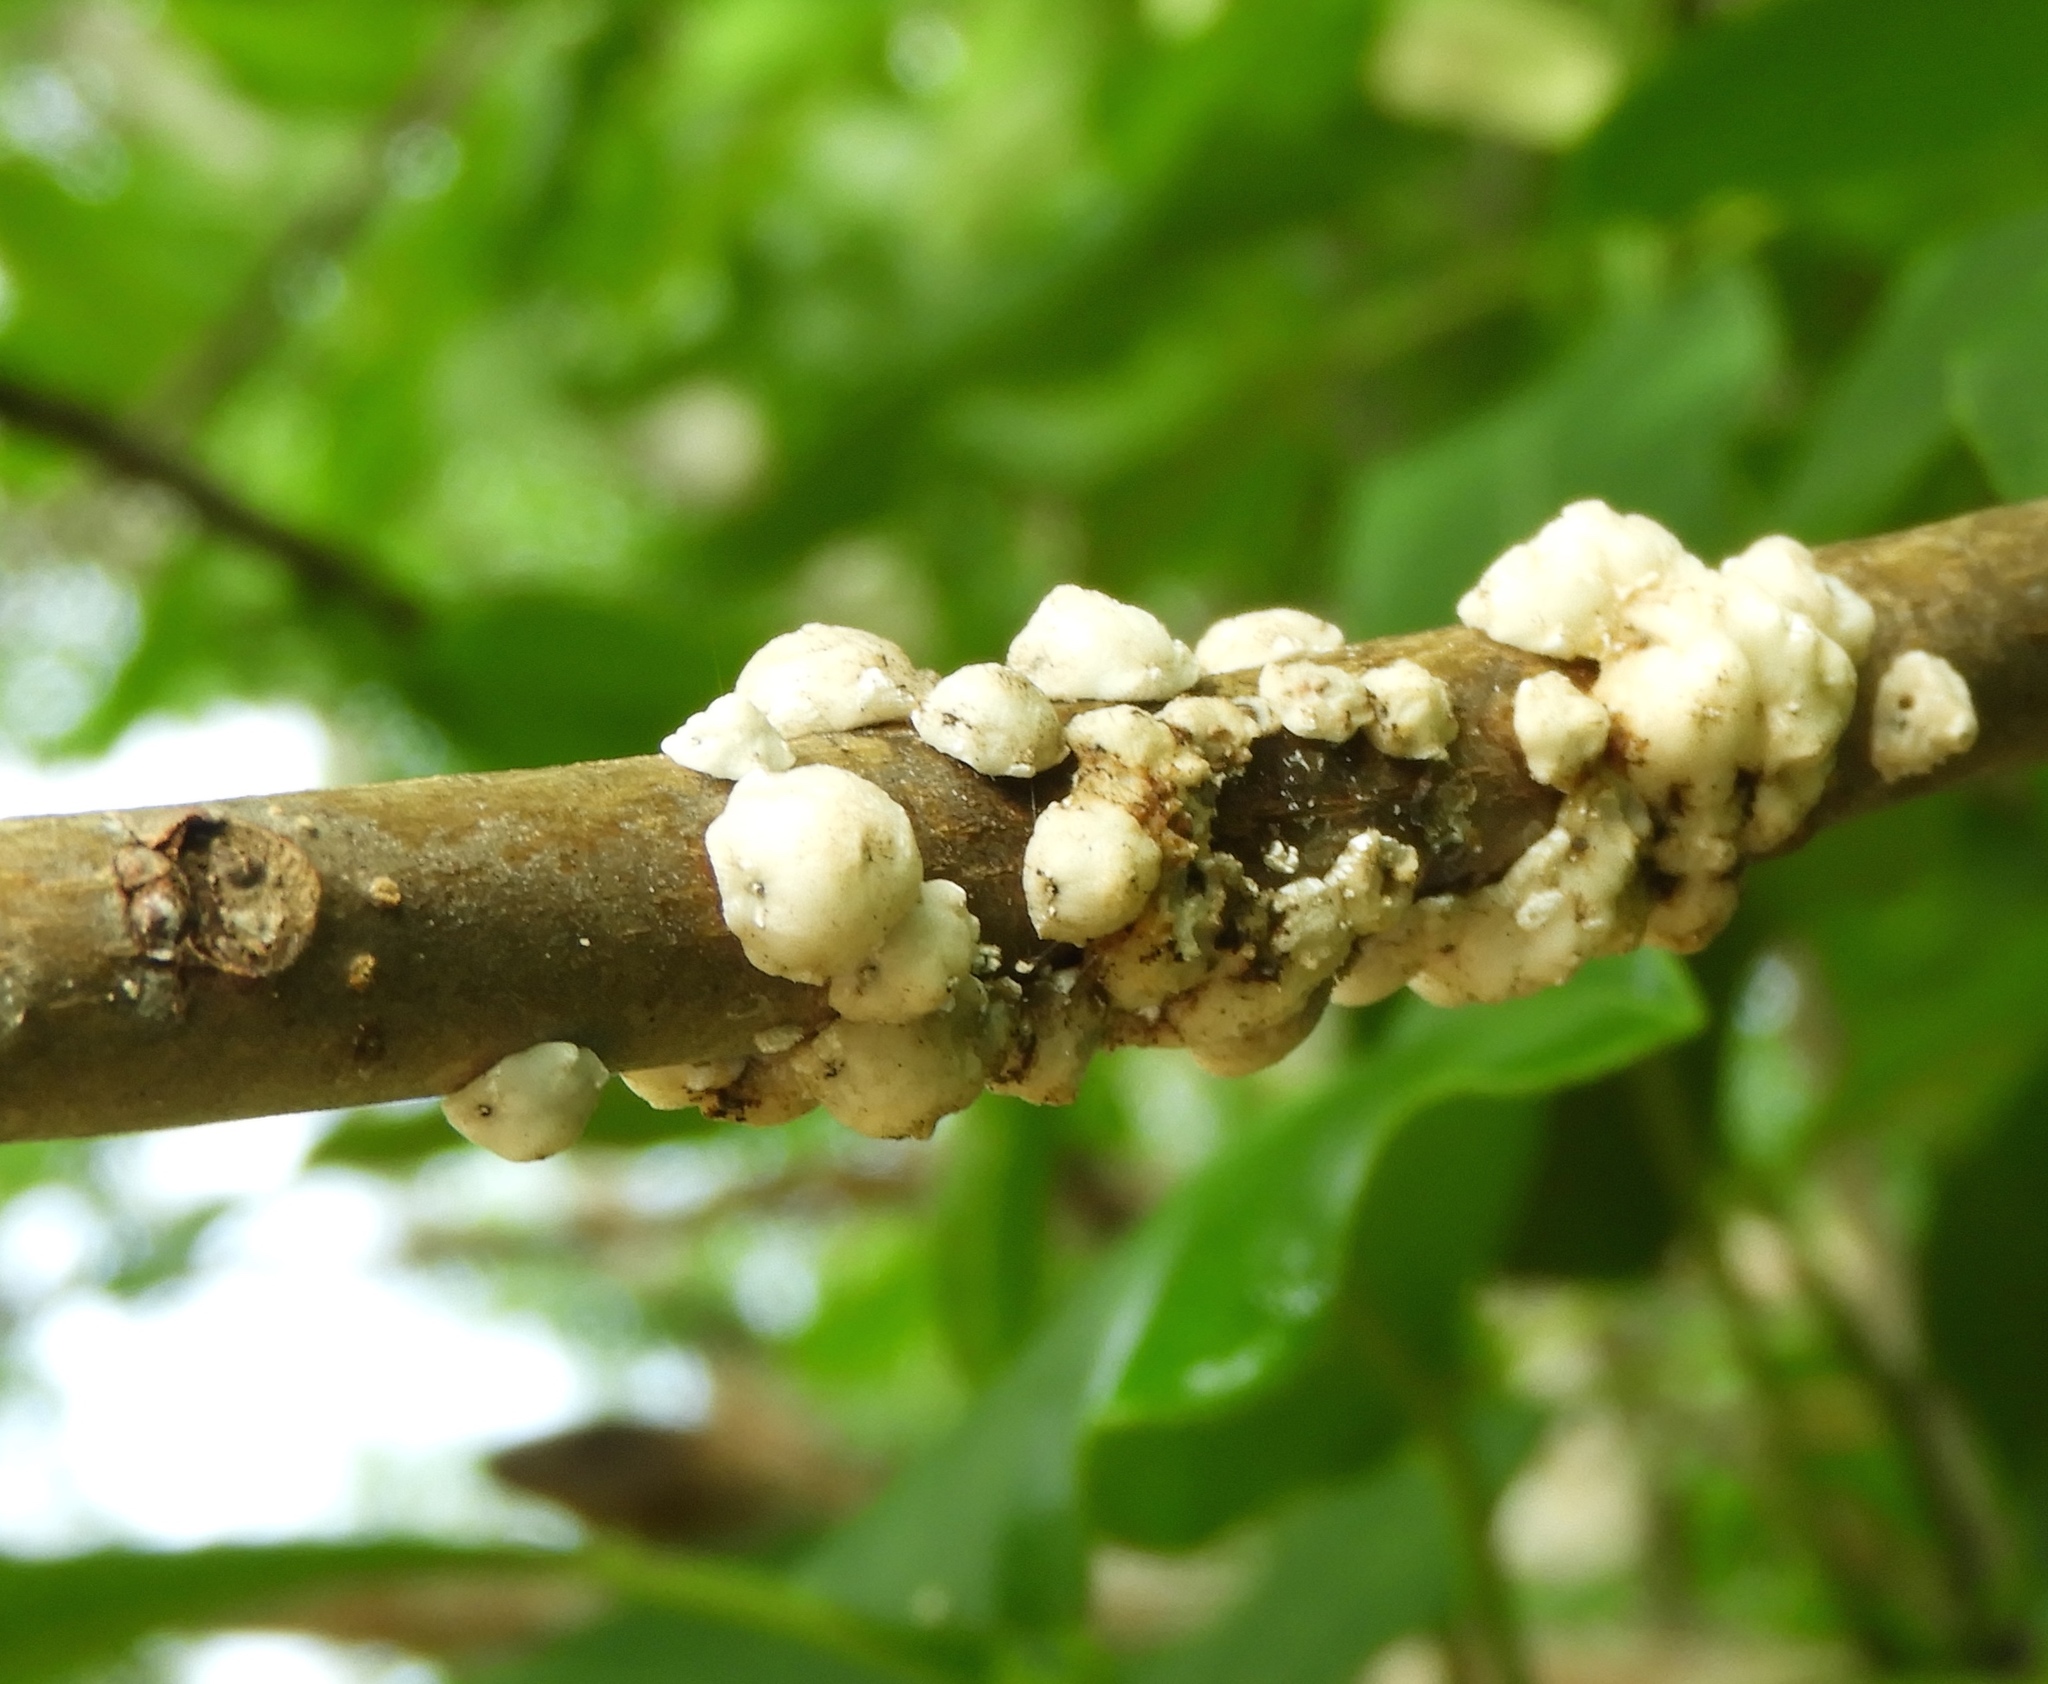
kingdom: Animalia
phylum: Arthropoda
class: Insecta
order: Hemiptera
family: Coccidae
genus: Ceroplastes
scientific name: Ceroplastes
